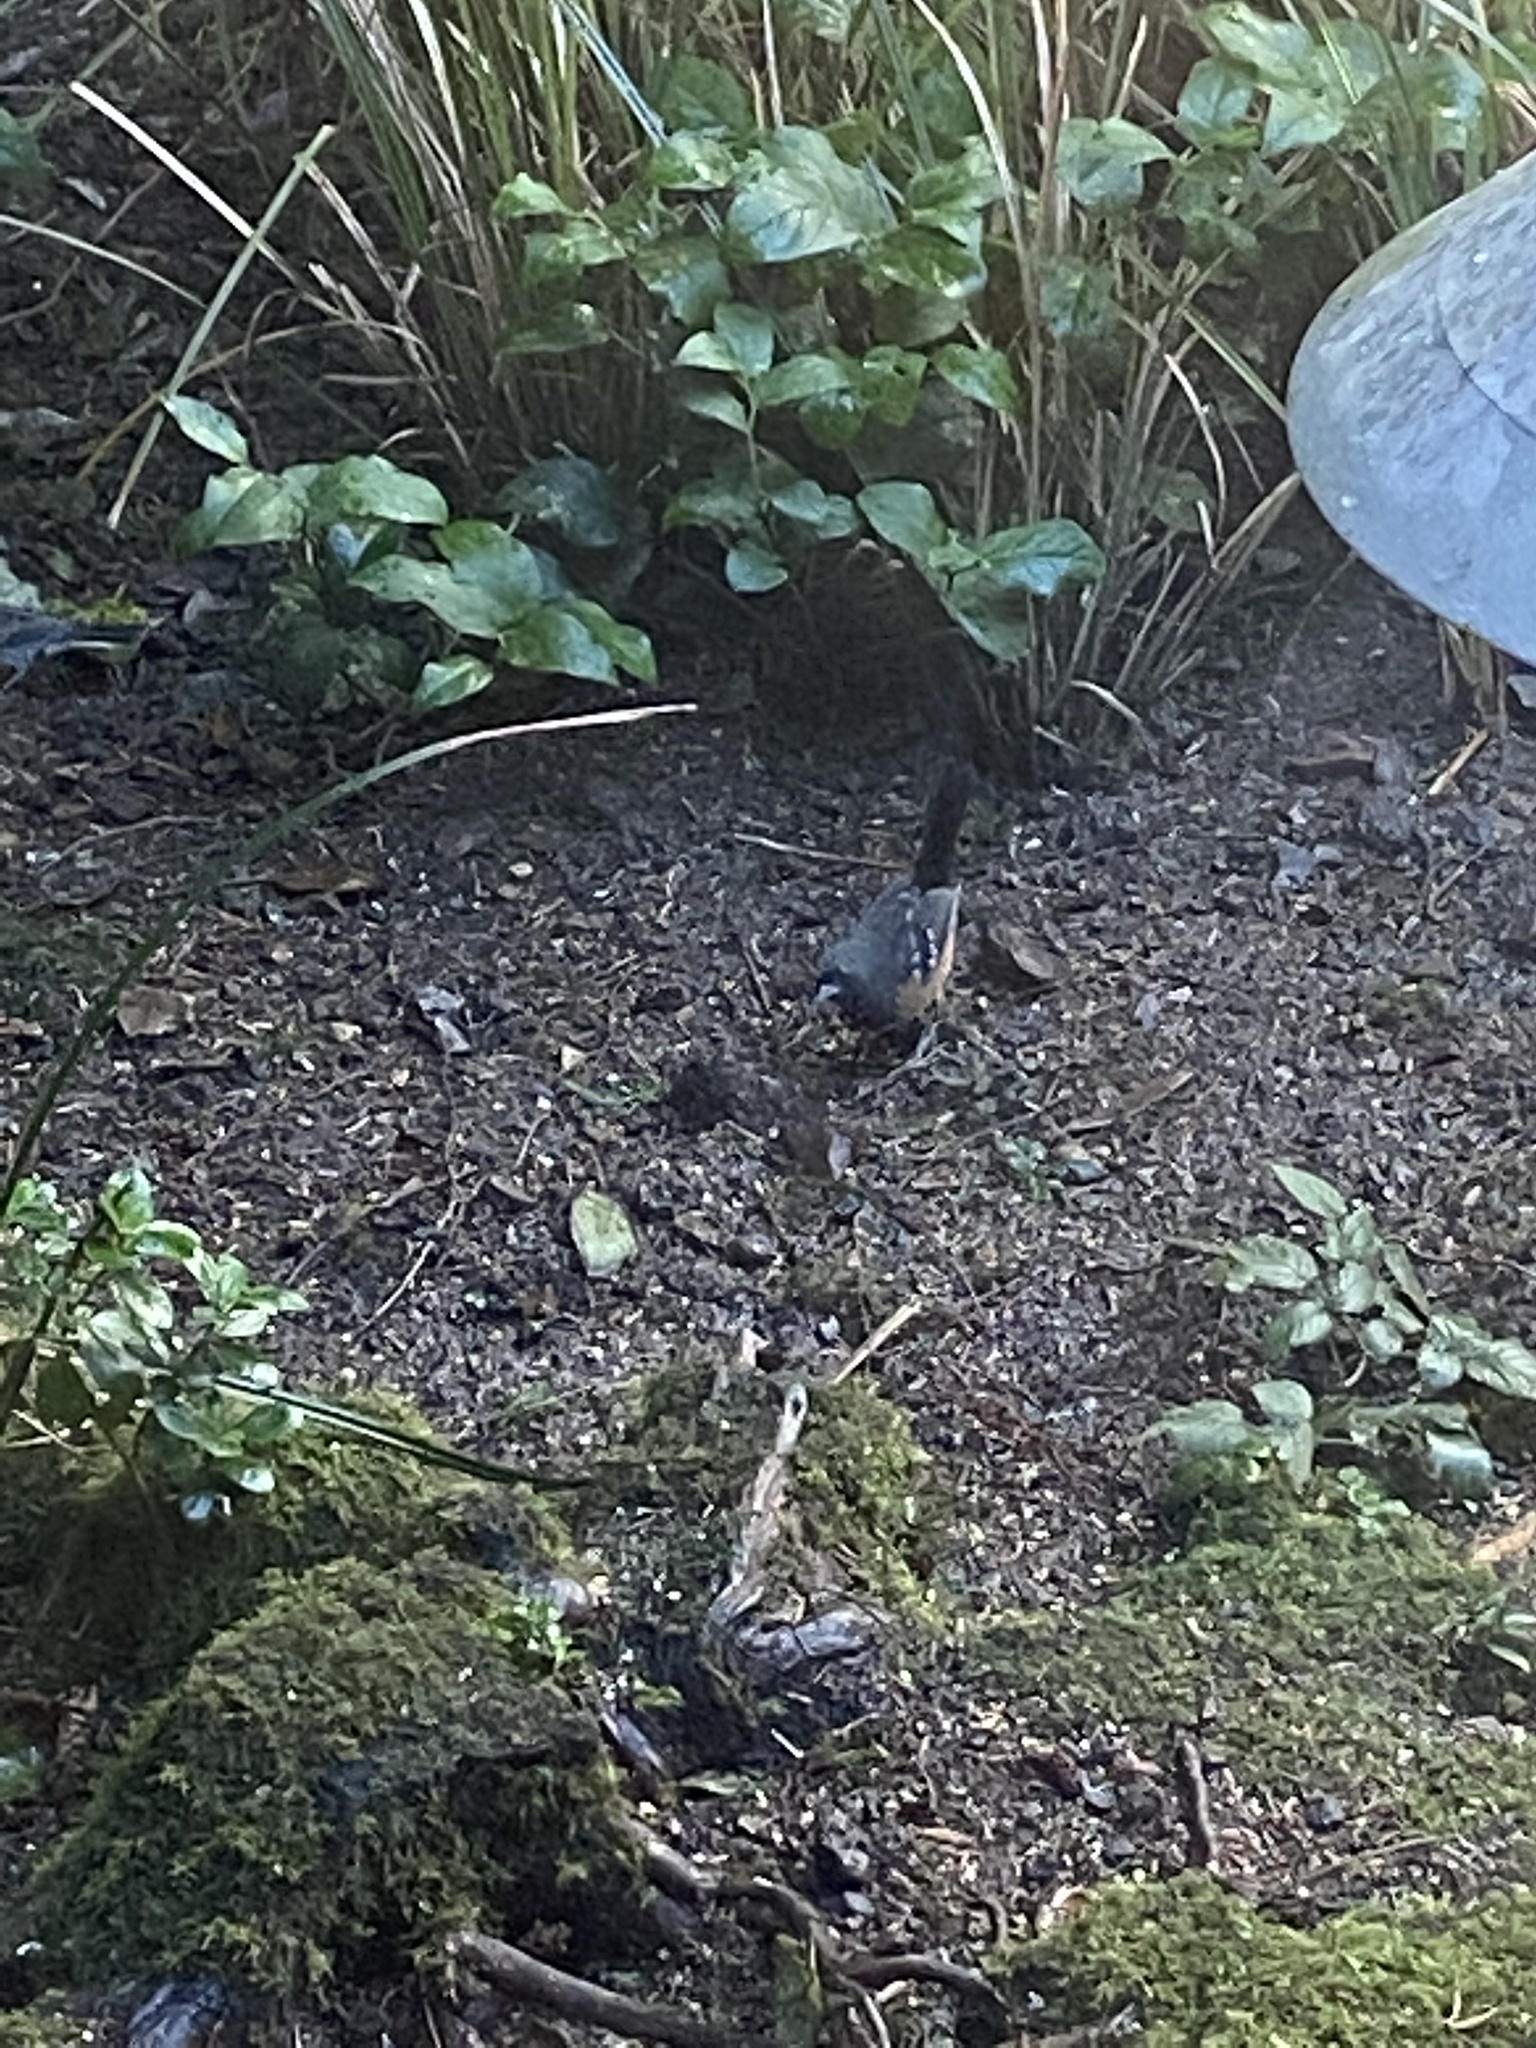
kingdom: Animalia
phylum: Chordata
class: Aves
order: Passeriformes
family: Passerellidae
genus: Pipilo
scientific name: Pipilo maculatus
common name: Spotted towhee
